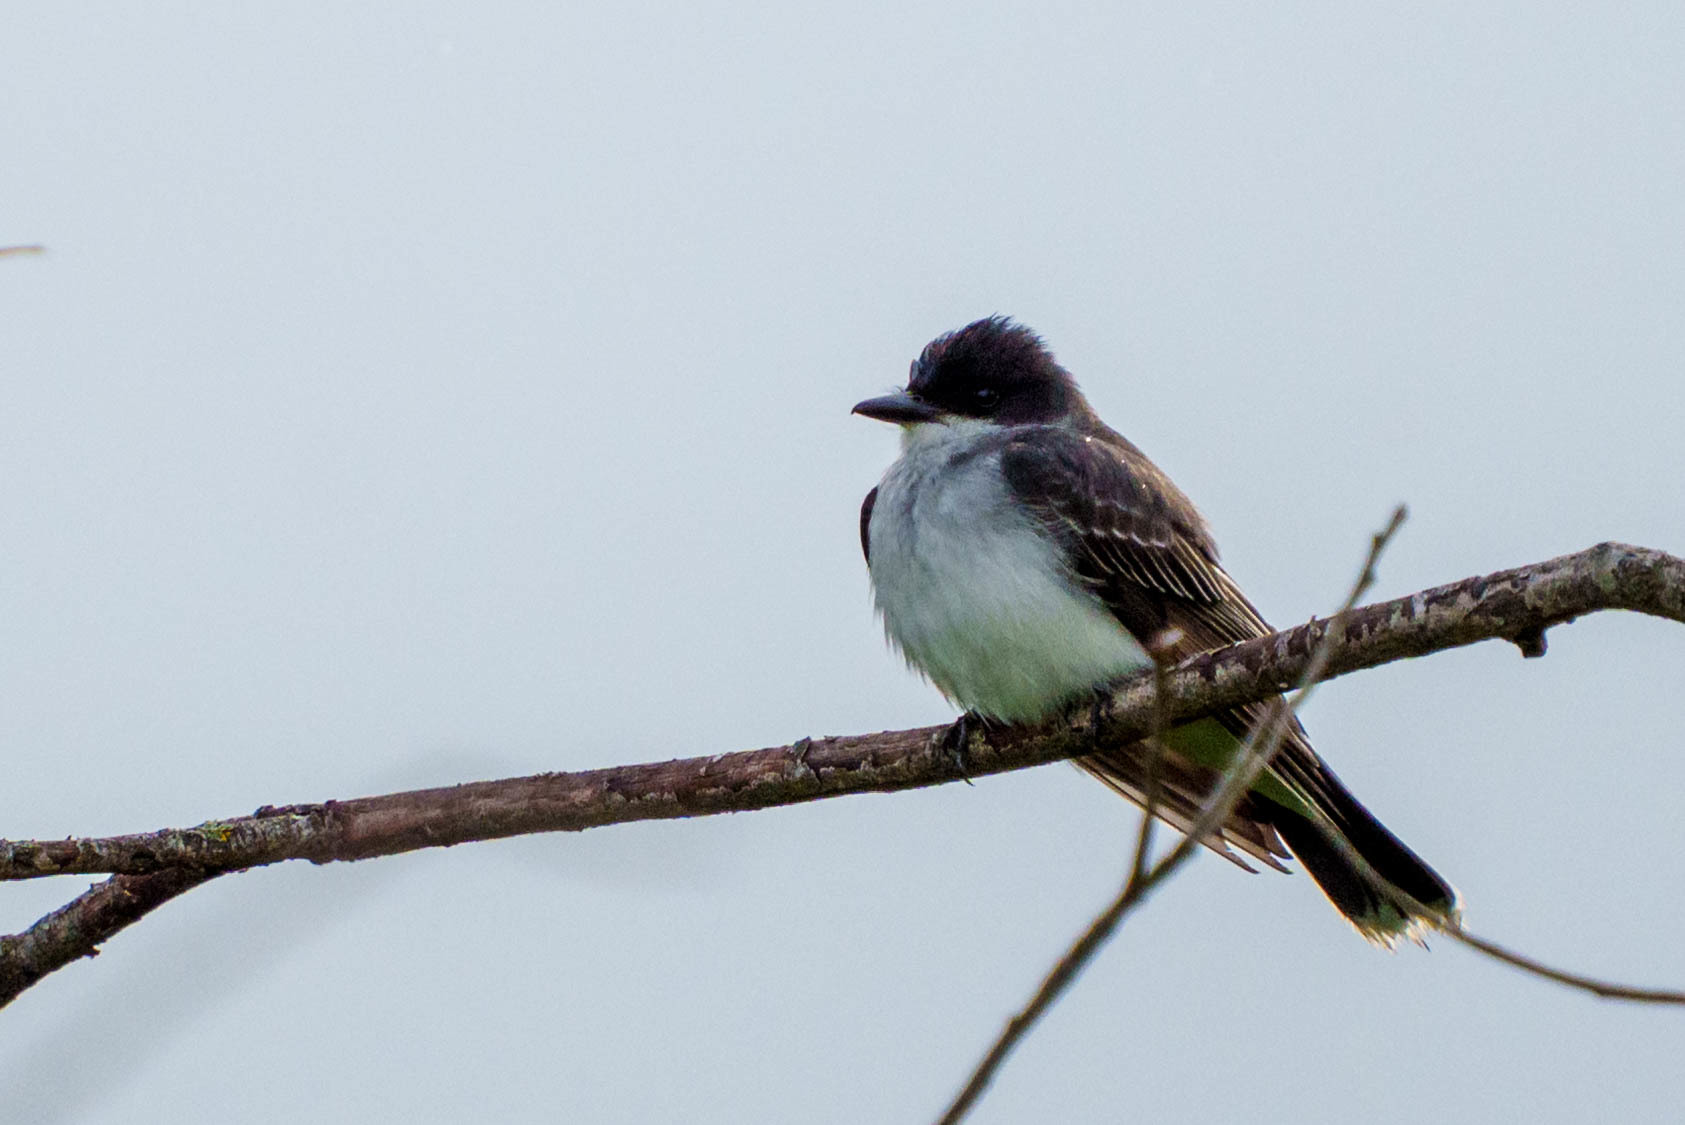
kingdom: Animalia
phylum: Chordata
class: Aves
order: Passeriformes
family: Tyrannidae
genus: Tyrannus
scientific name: Tyrannus tyrannus
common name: Eastern kingbird
